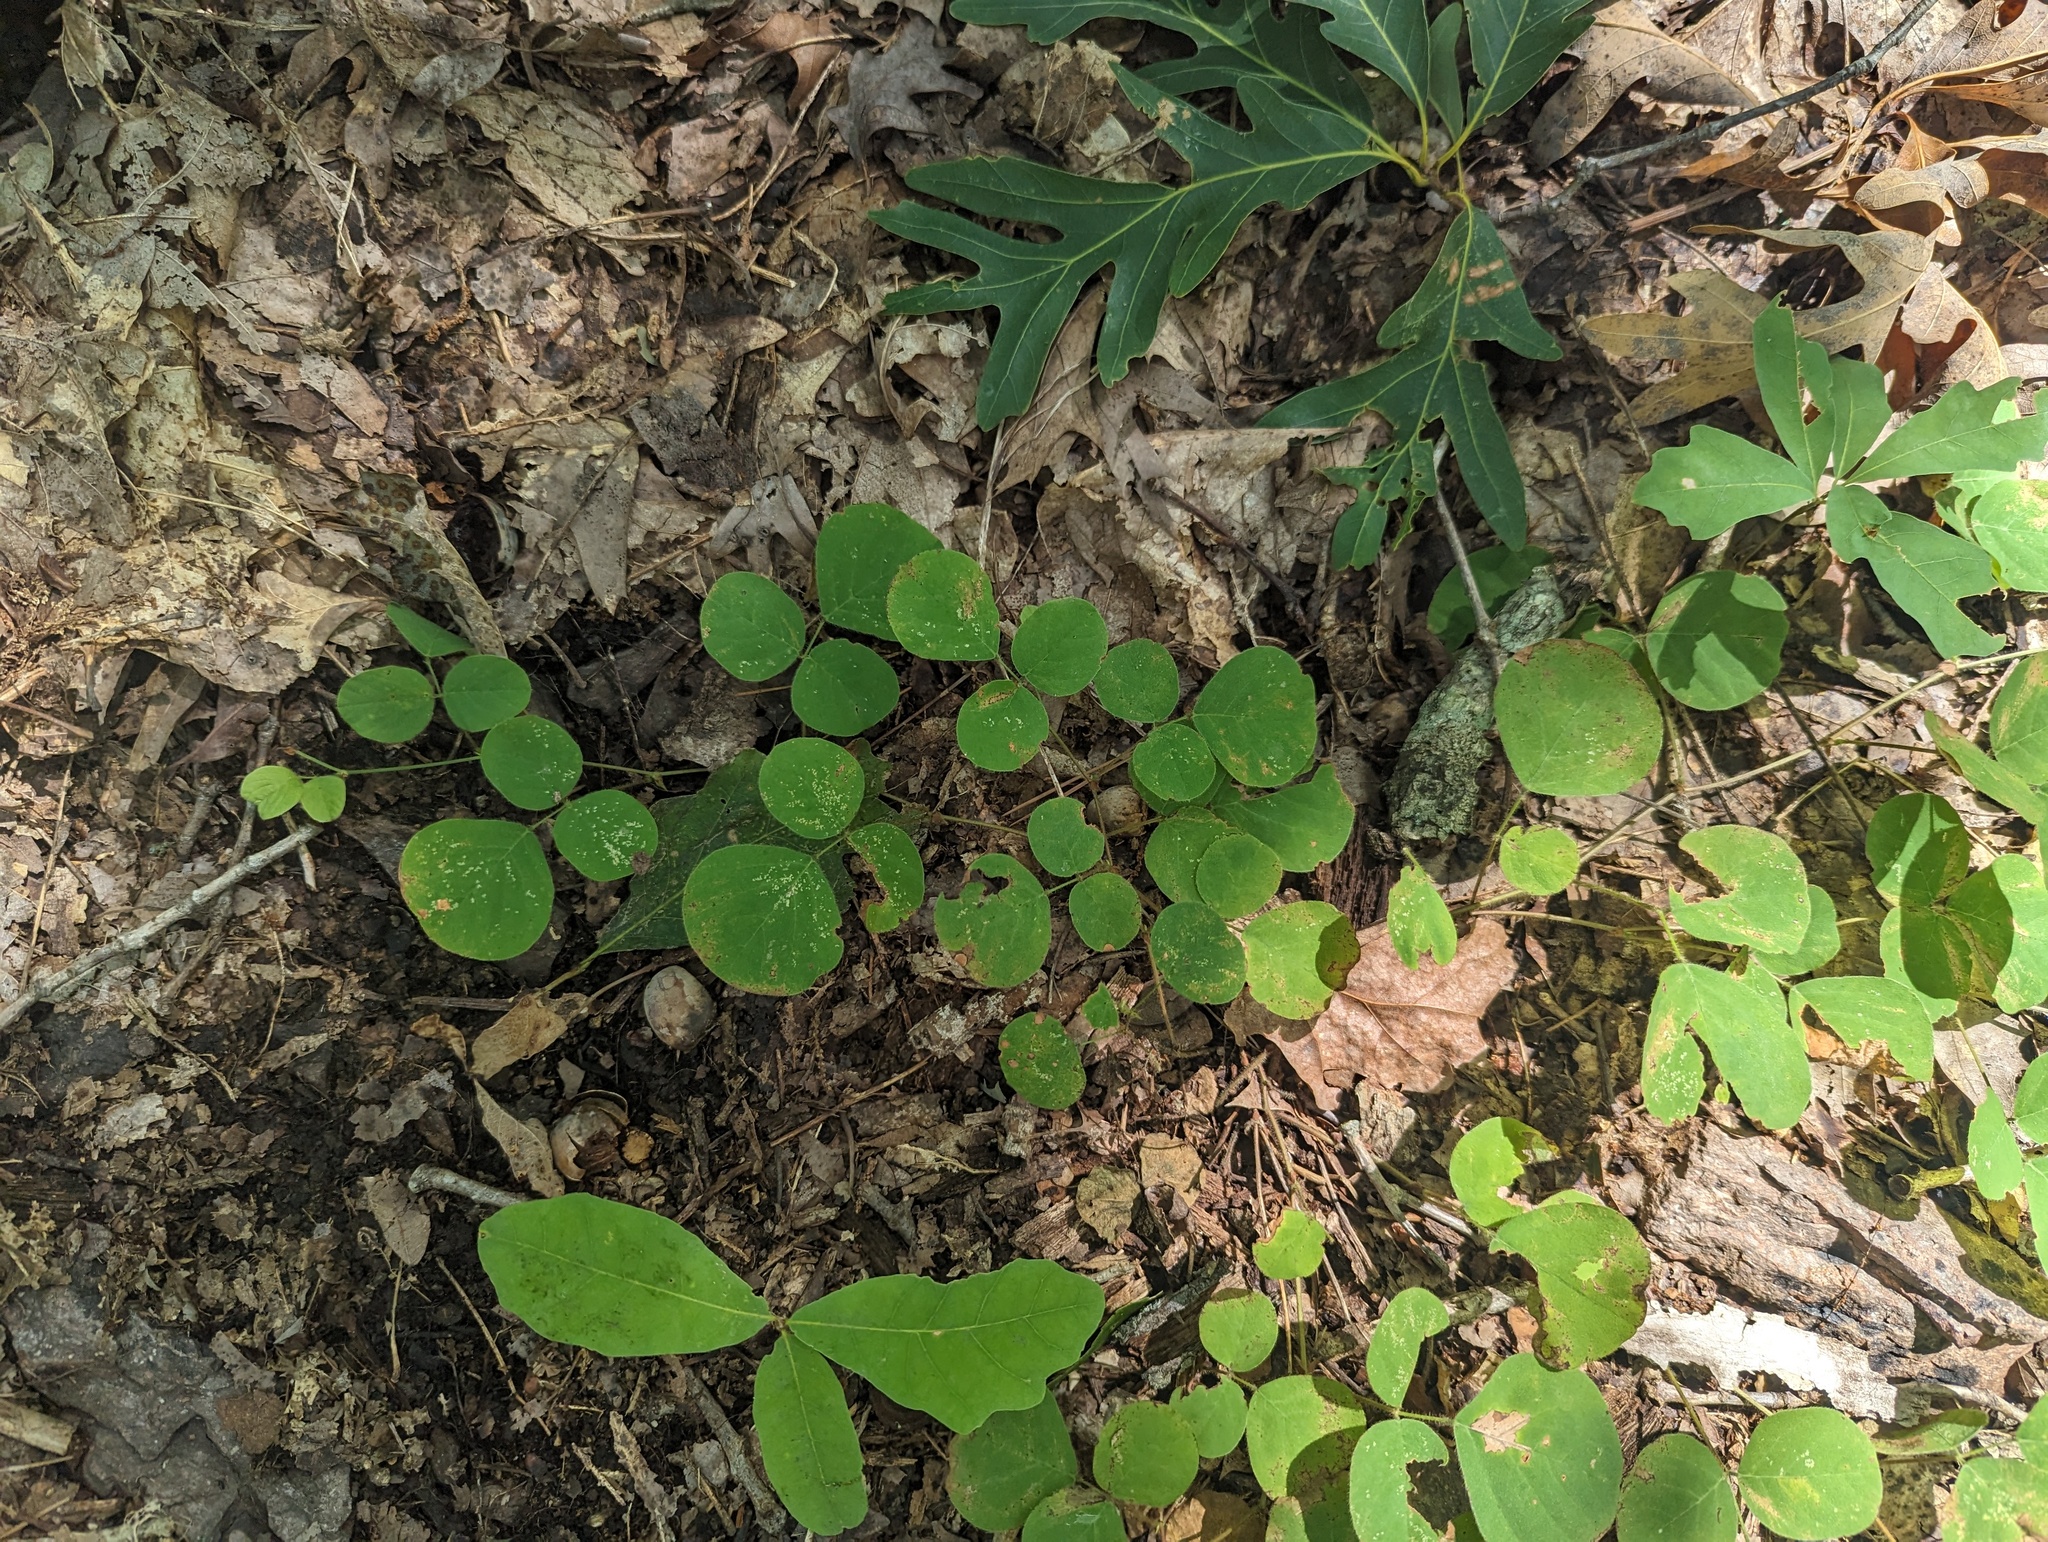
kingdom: Plantae
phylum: Tracheophyta
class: Magnoliopsida
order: Fabales
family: Fabaceae
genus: Desmodium
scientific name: Desmodium rotundifolium
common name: Dollarleaf
